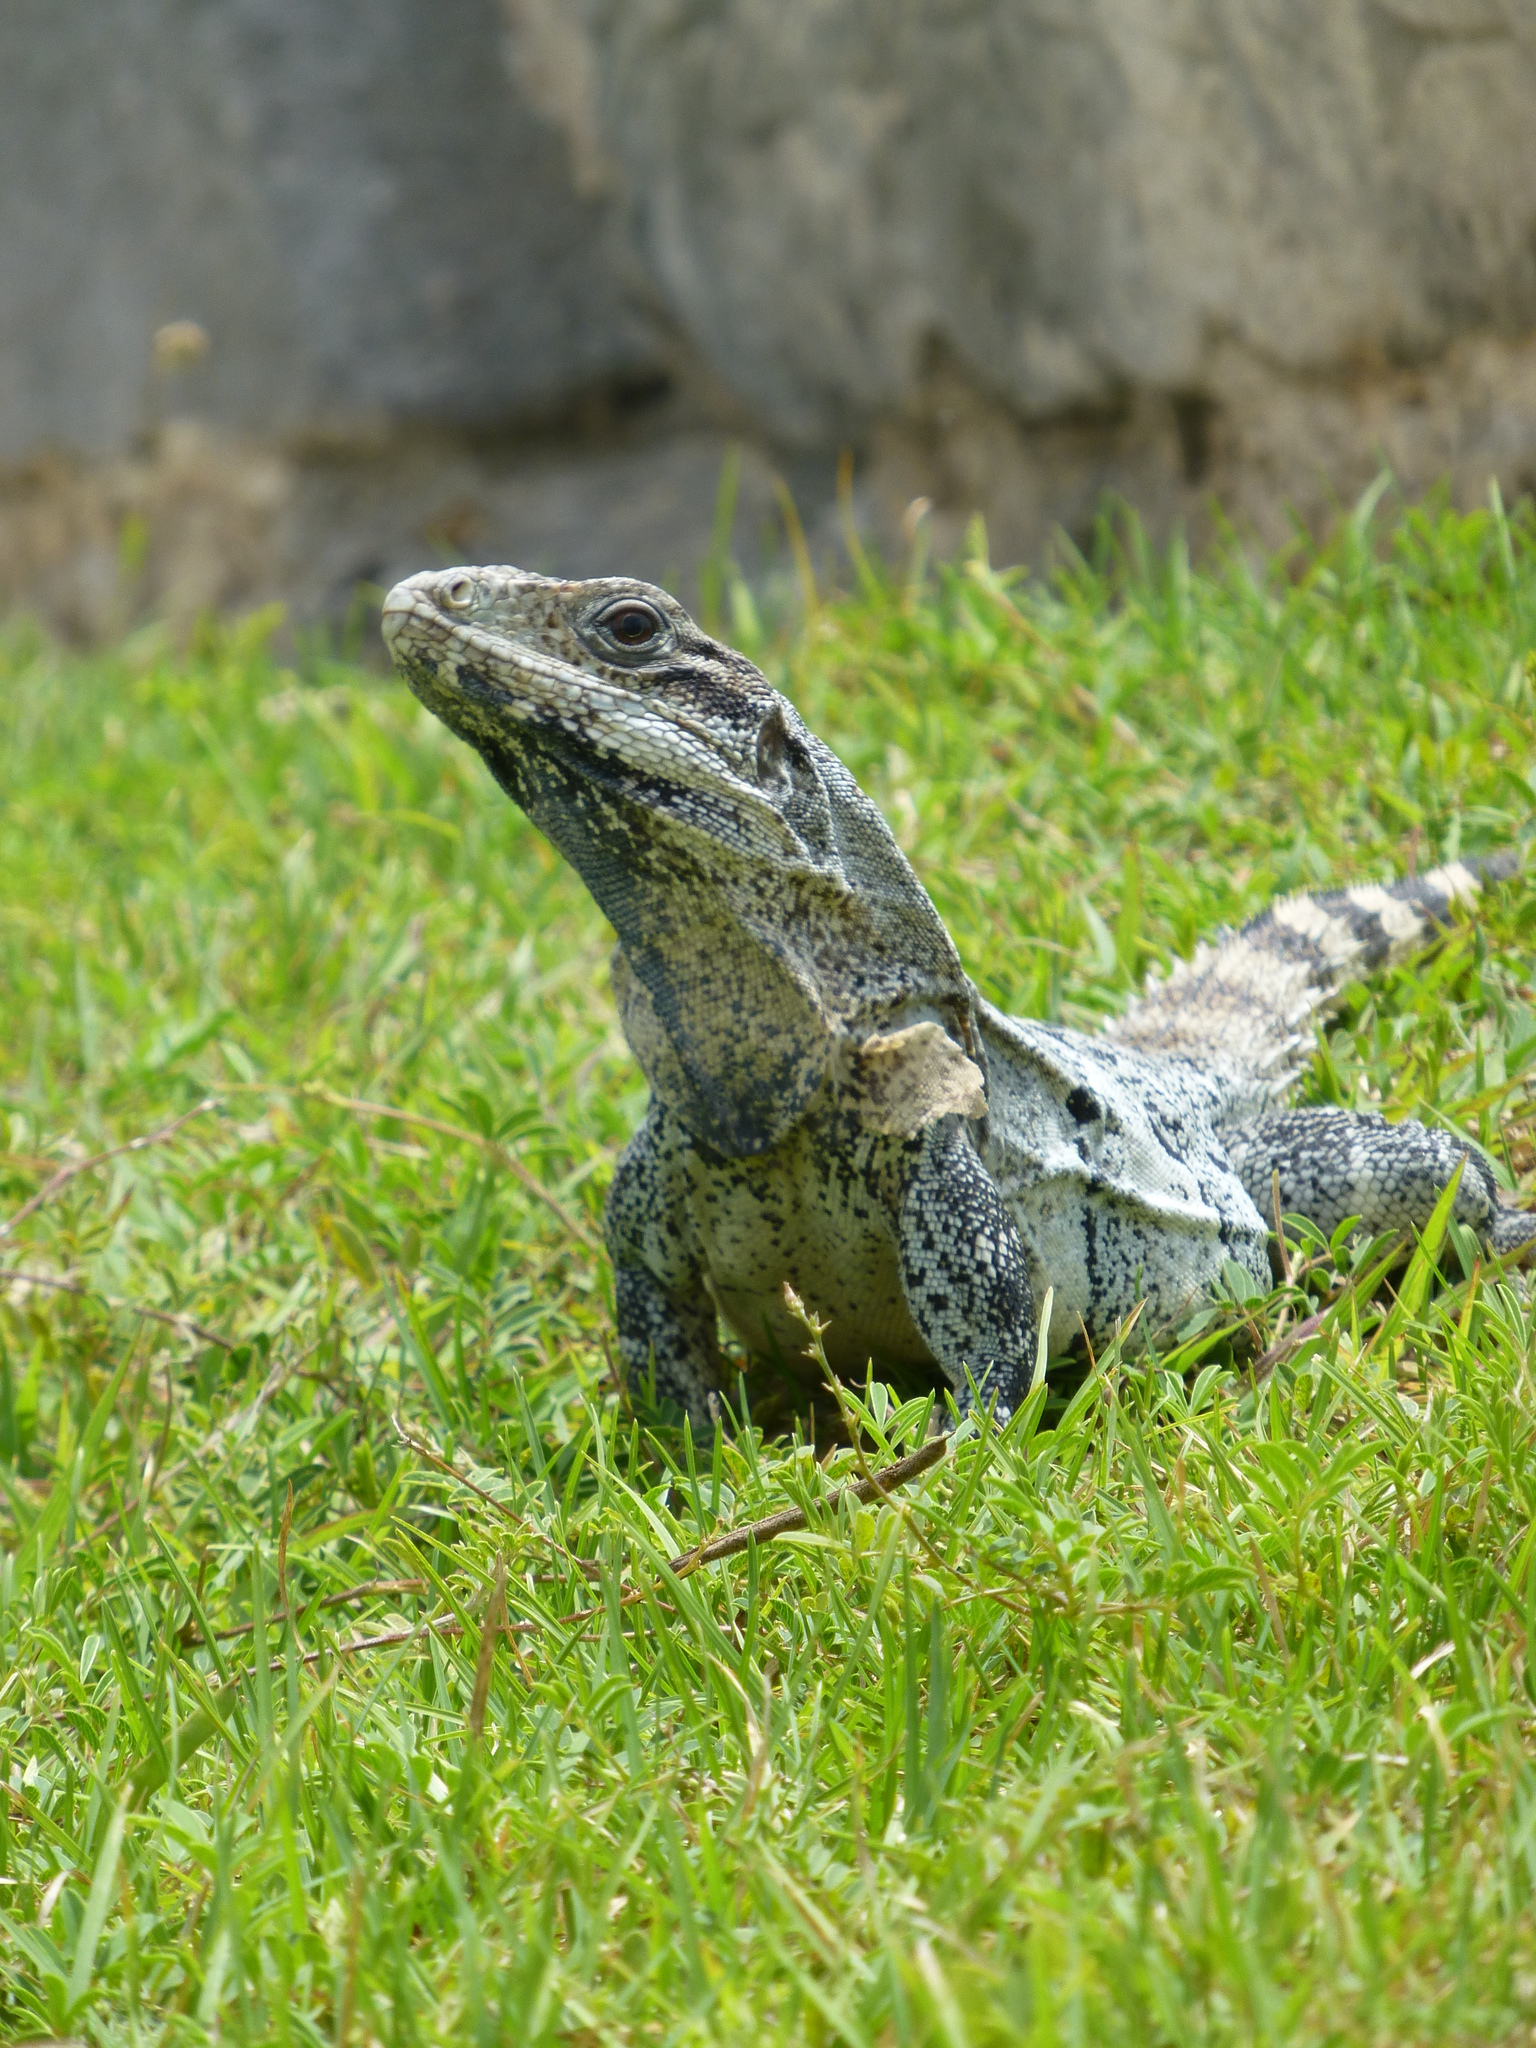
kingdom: Animalia
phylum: Chordata
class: Squamata
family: Iguanidae
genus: Ctenosaura
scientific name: Ctenosaura similis
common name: Black spiny-tailed iguana
